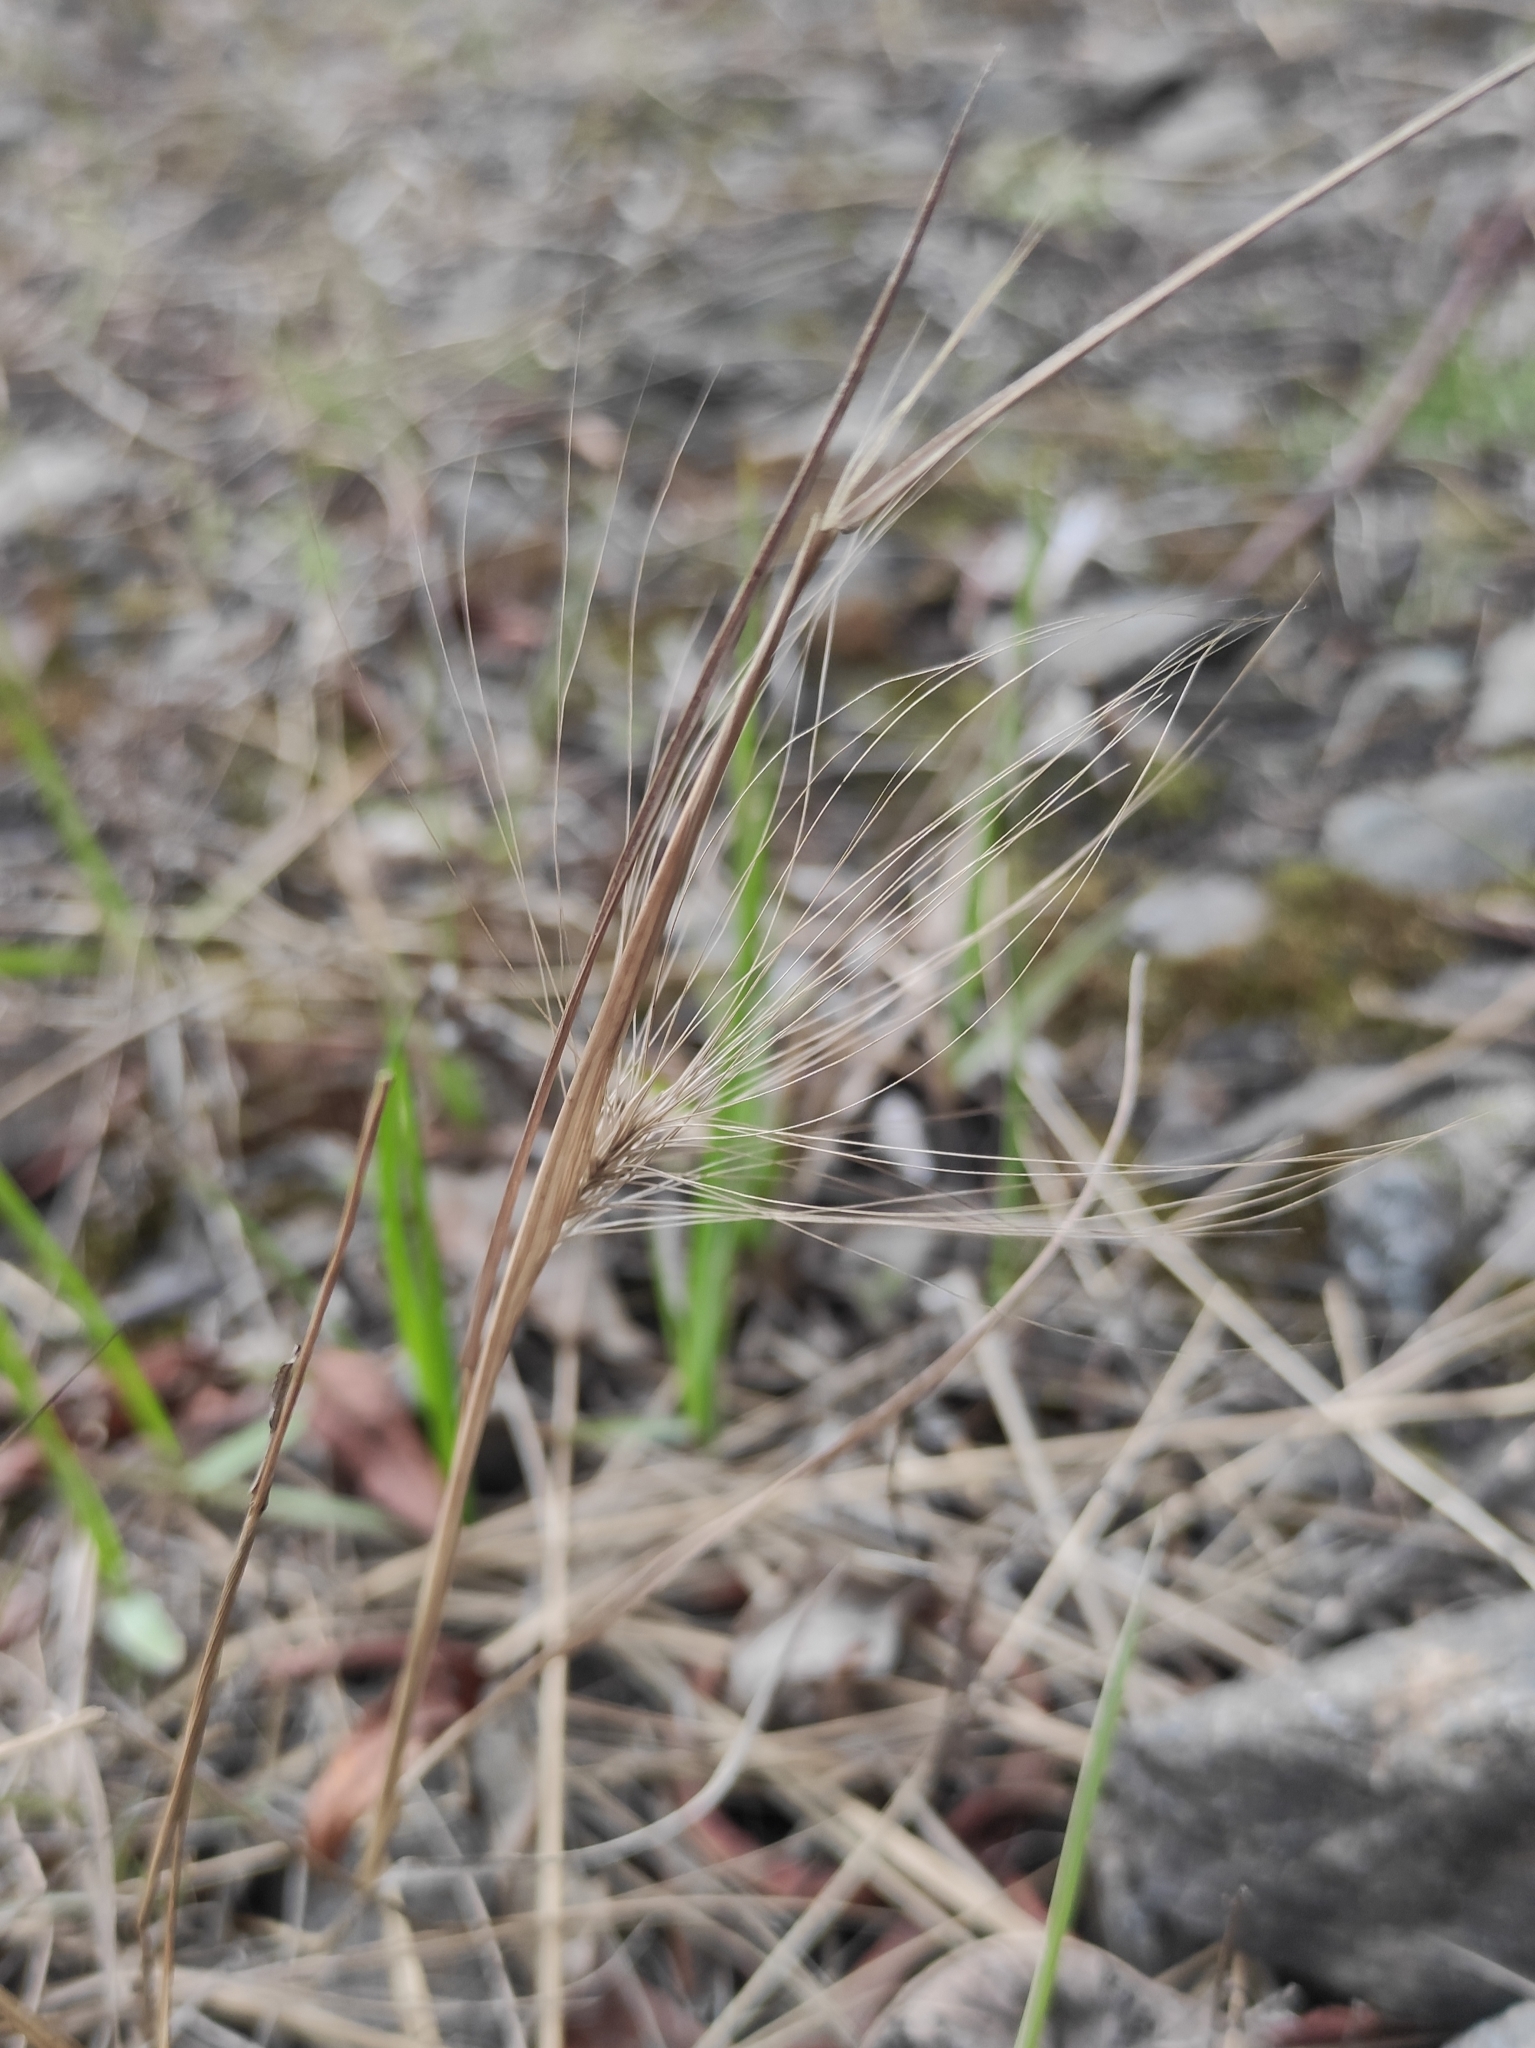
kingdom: Plantae
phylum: Tracheophyta
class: Liliopsida
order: Poales
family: Poaceae
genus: Hordeum
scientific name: Hordeum jubatum
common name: Foxtail barley
